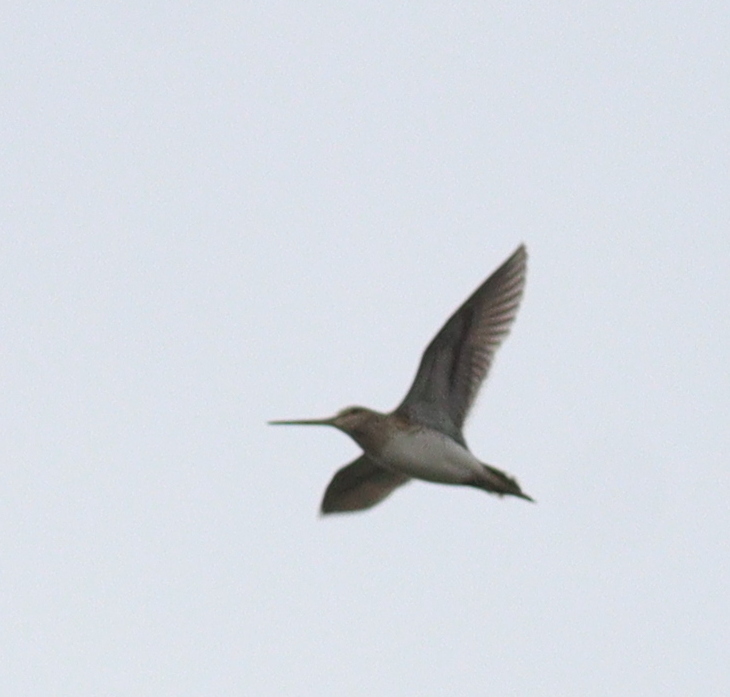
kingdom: Animalia
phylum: Chordata
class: Aves
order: Charadriiformes
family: Scolopacidae
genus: Gallinago
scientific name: Gallinago gallinago
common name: Common snipe
